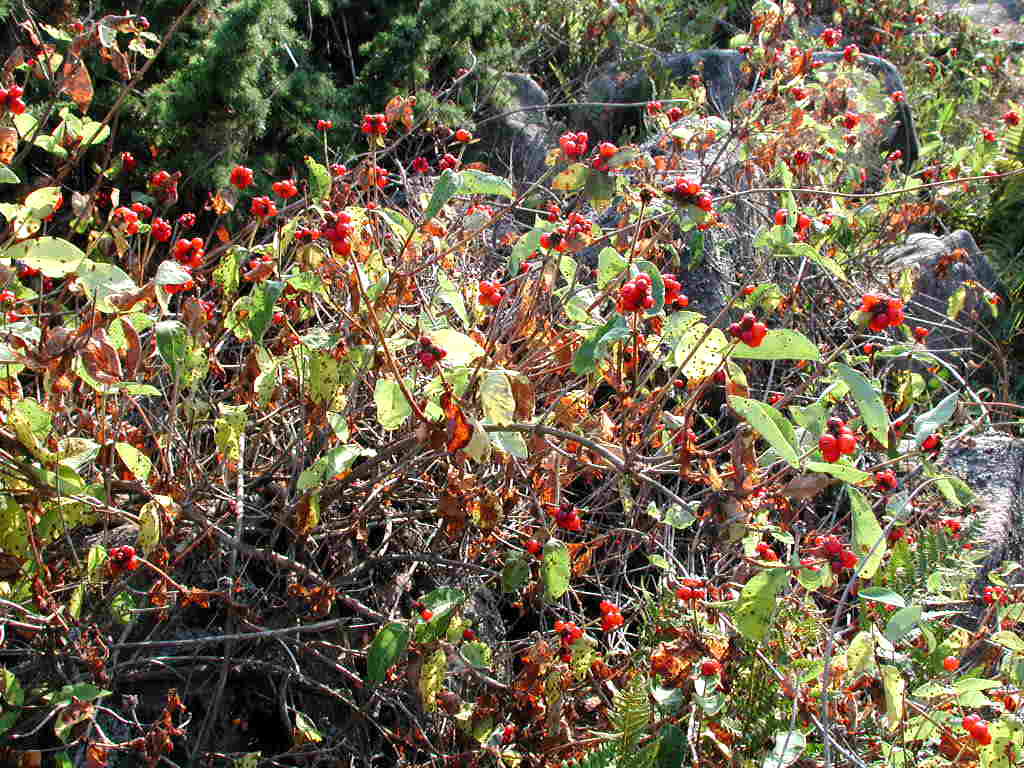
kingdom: Plantae
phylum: Tracheophyta
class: Magnoliopsida
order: Dipsacales
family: Caprifoliaceae
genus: Lonicera
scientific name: Lonicera periclymenum
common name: European honeysuckle
